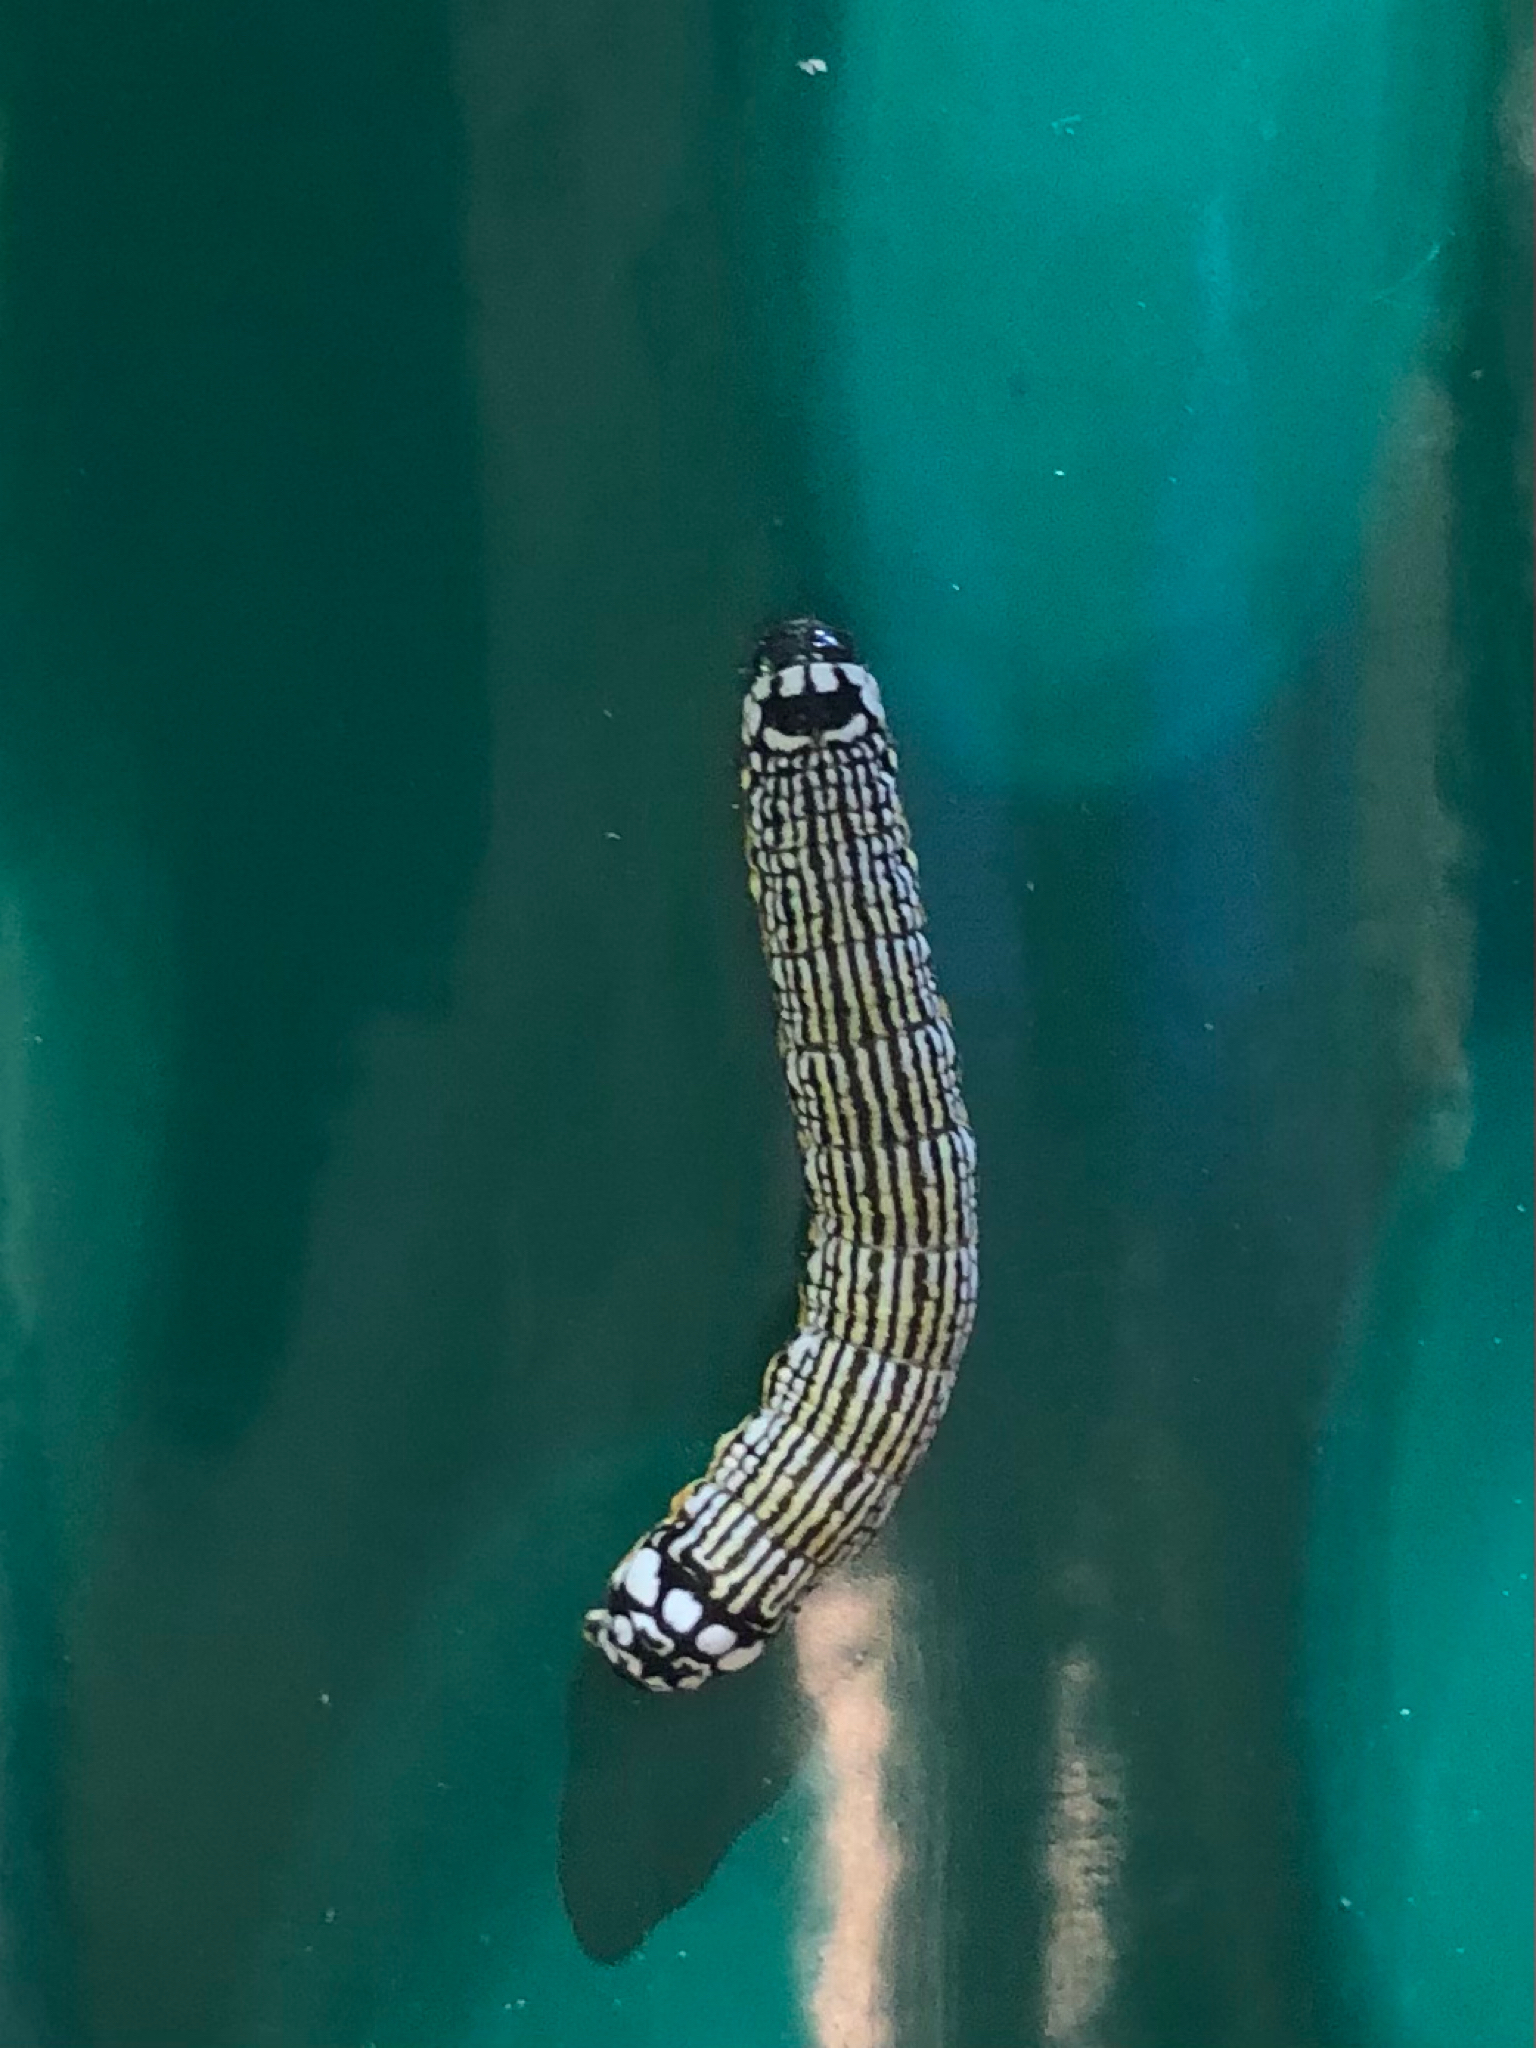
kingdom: Animalia
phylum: Arthropoda
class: Insecta
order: Lepidoptera
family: Noctuidae
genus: Phosphila
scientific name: Phosphila turbulenta
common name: Turbulent phosphila moth
